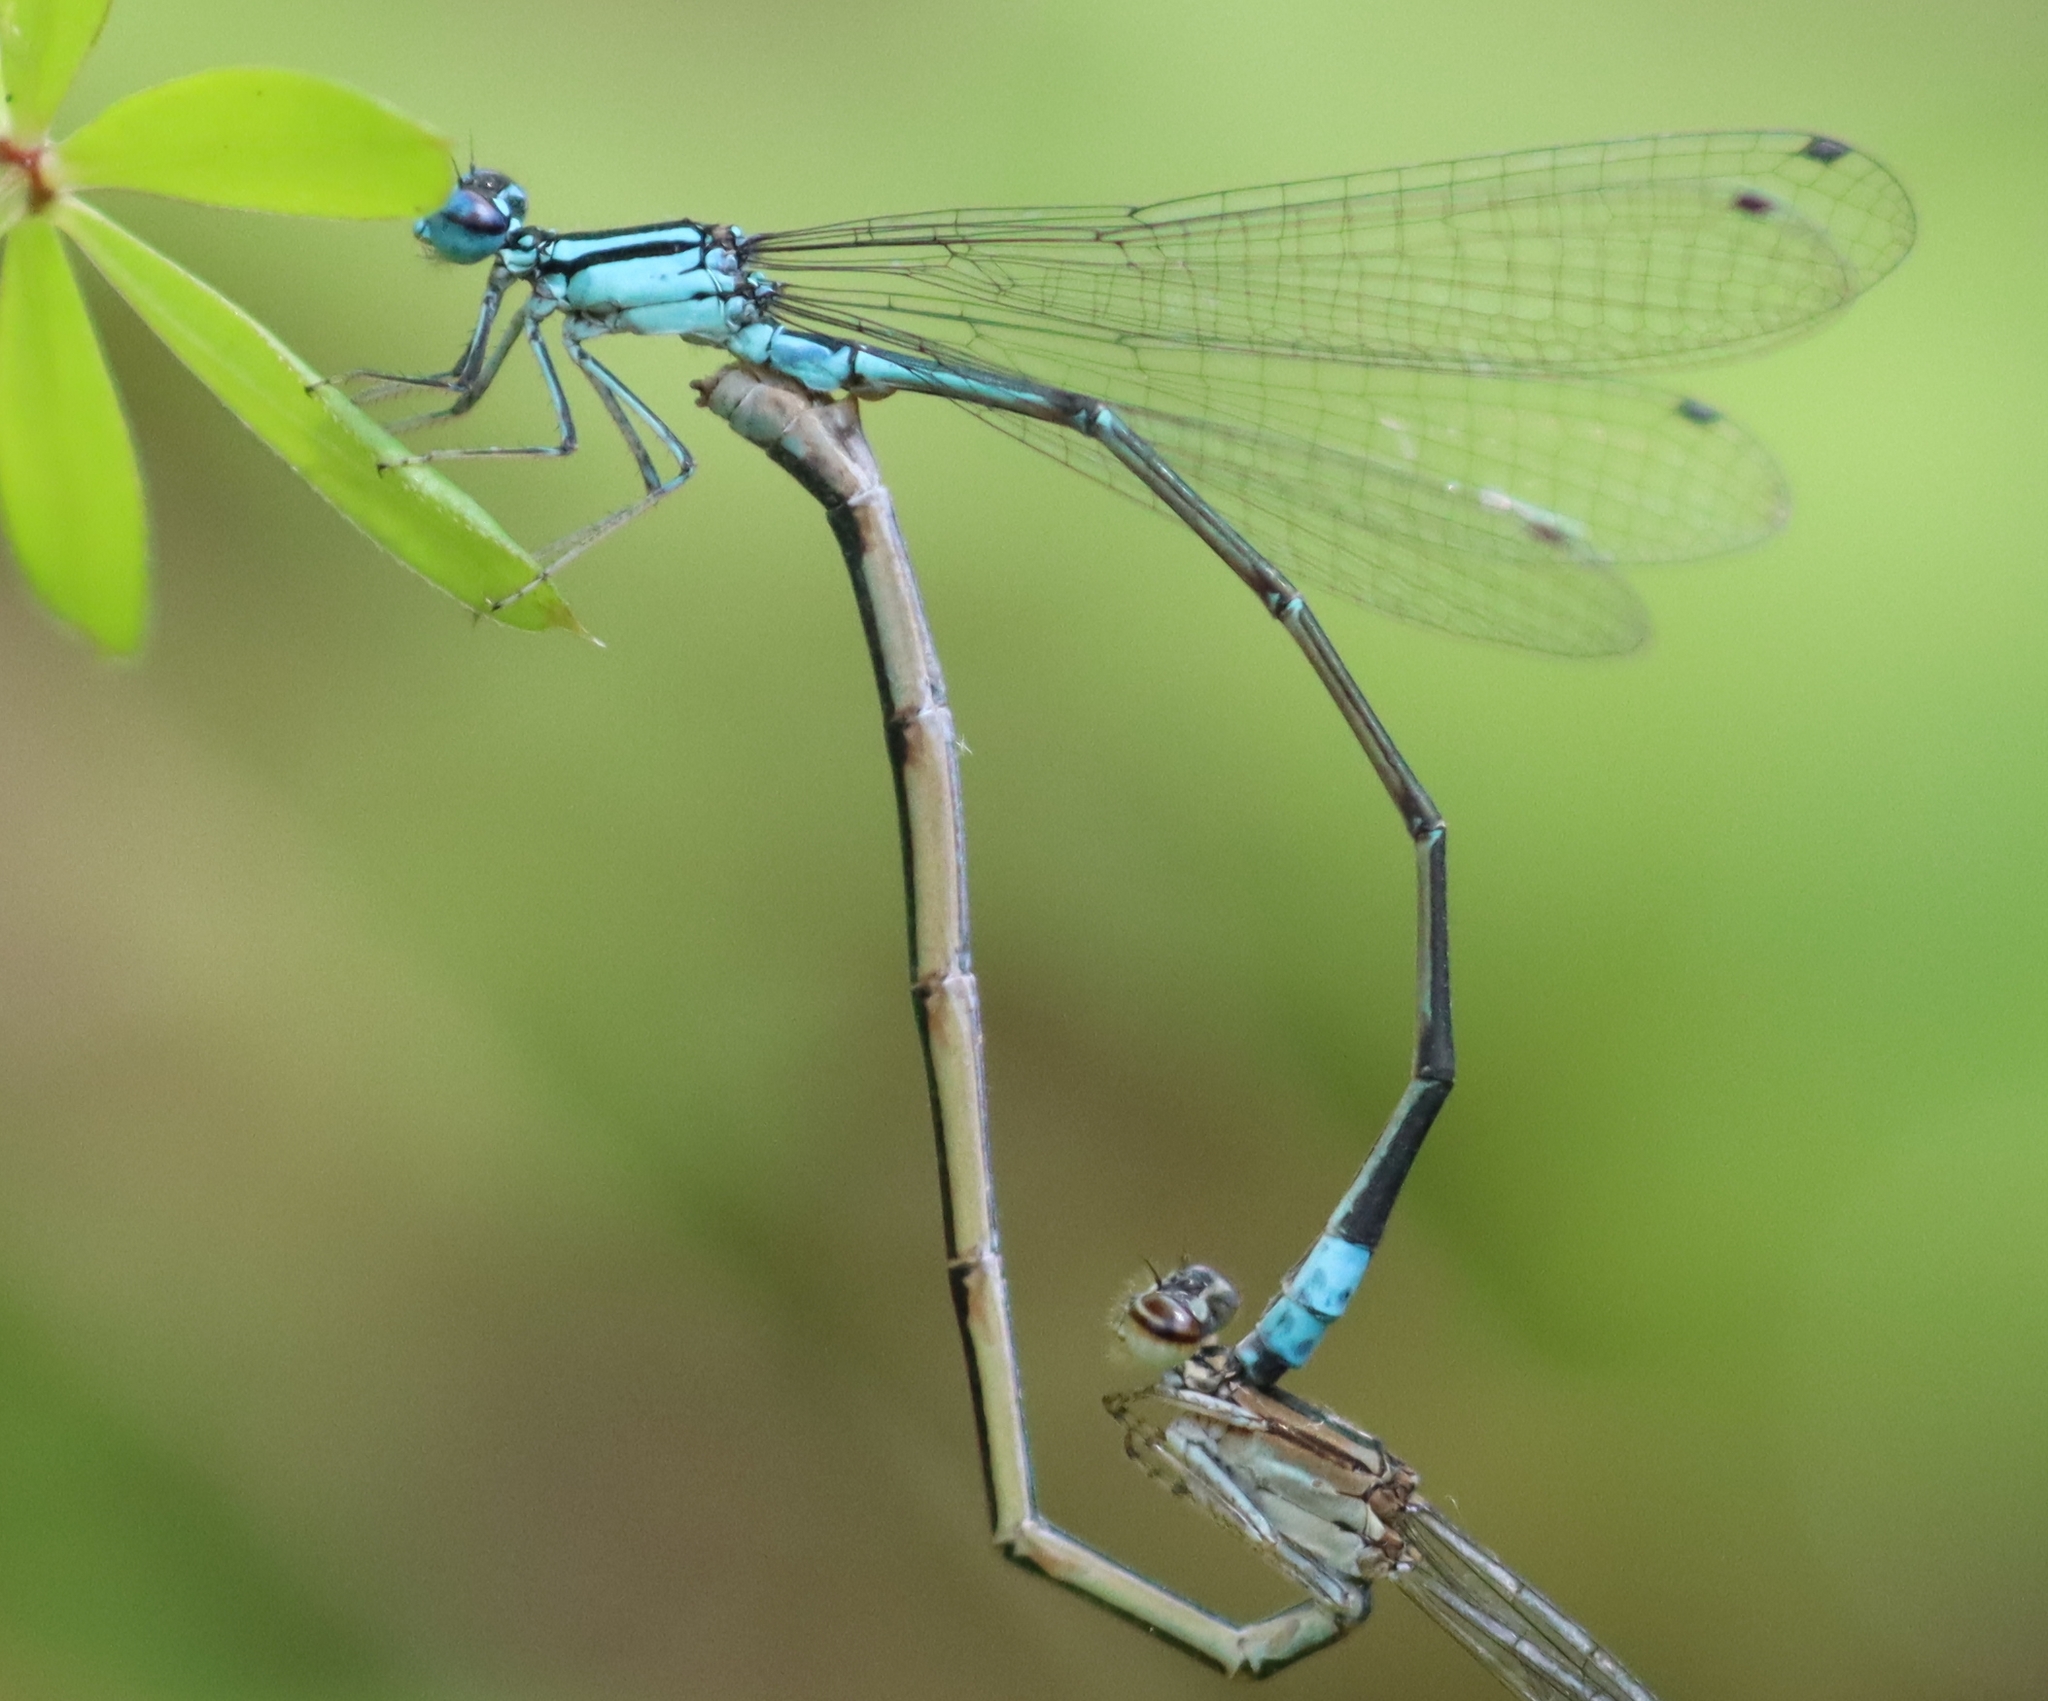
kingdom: Animalia
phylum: Arthropoda
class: Insecta
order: Odonata
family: Coenagrionidae
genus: Enallagma
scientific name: Enallagma divagans
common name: Turquoise bluet
